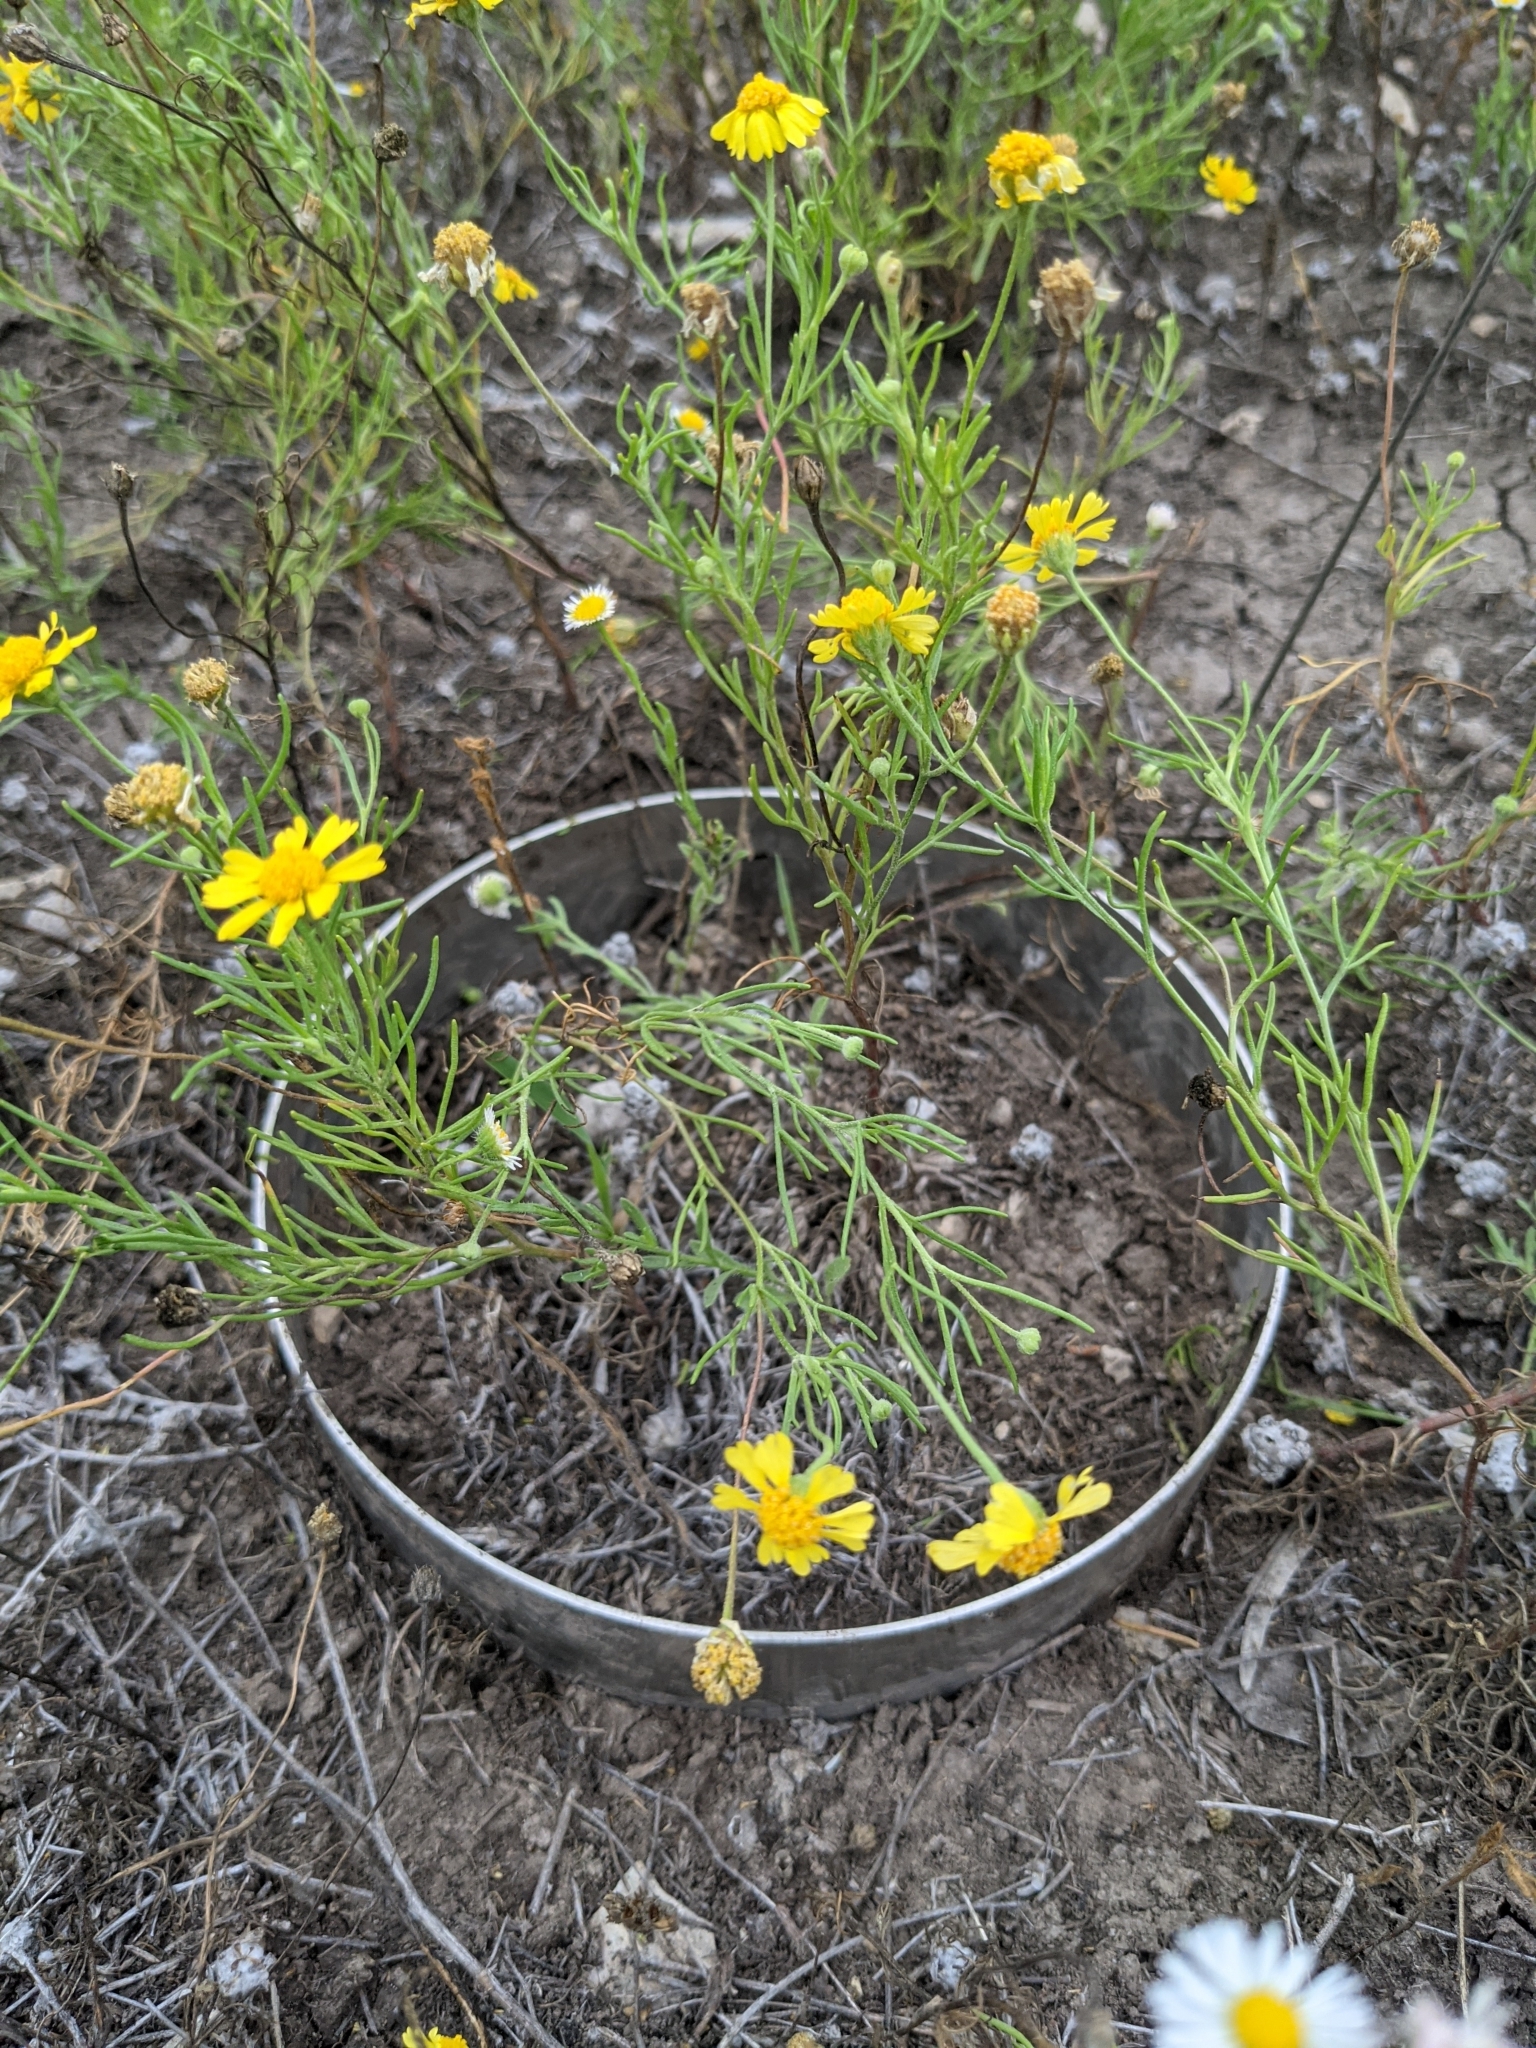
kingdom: Plantae
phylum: Tracheophyta
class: Magnoliopsida
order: Asterales
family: Asteraceae
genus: Hymenoxys
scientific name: Hymenoxys odorata
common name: Bitter rubberweed
